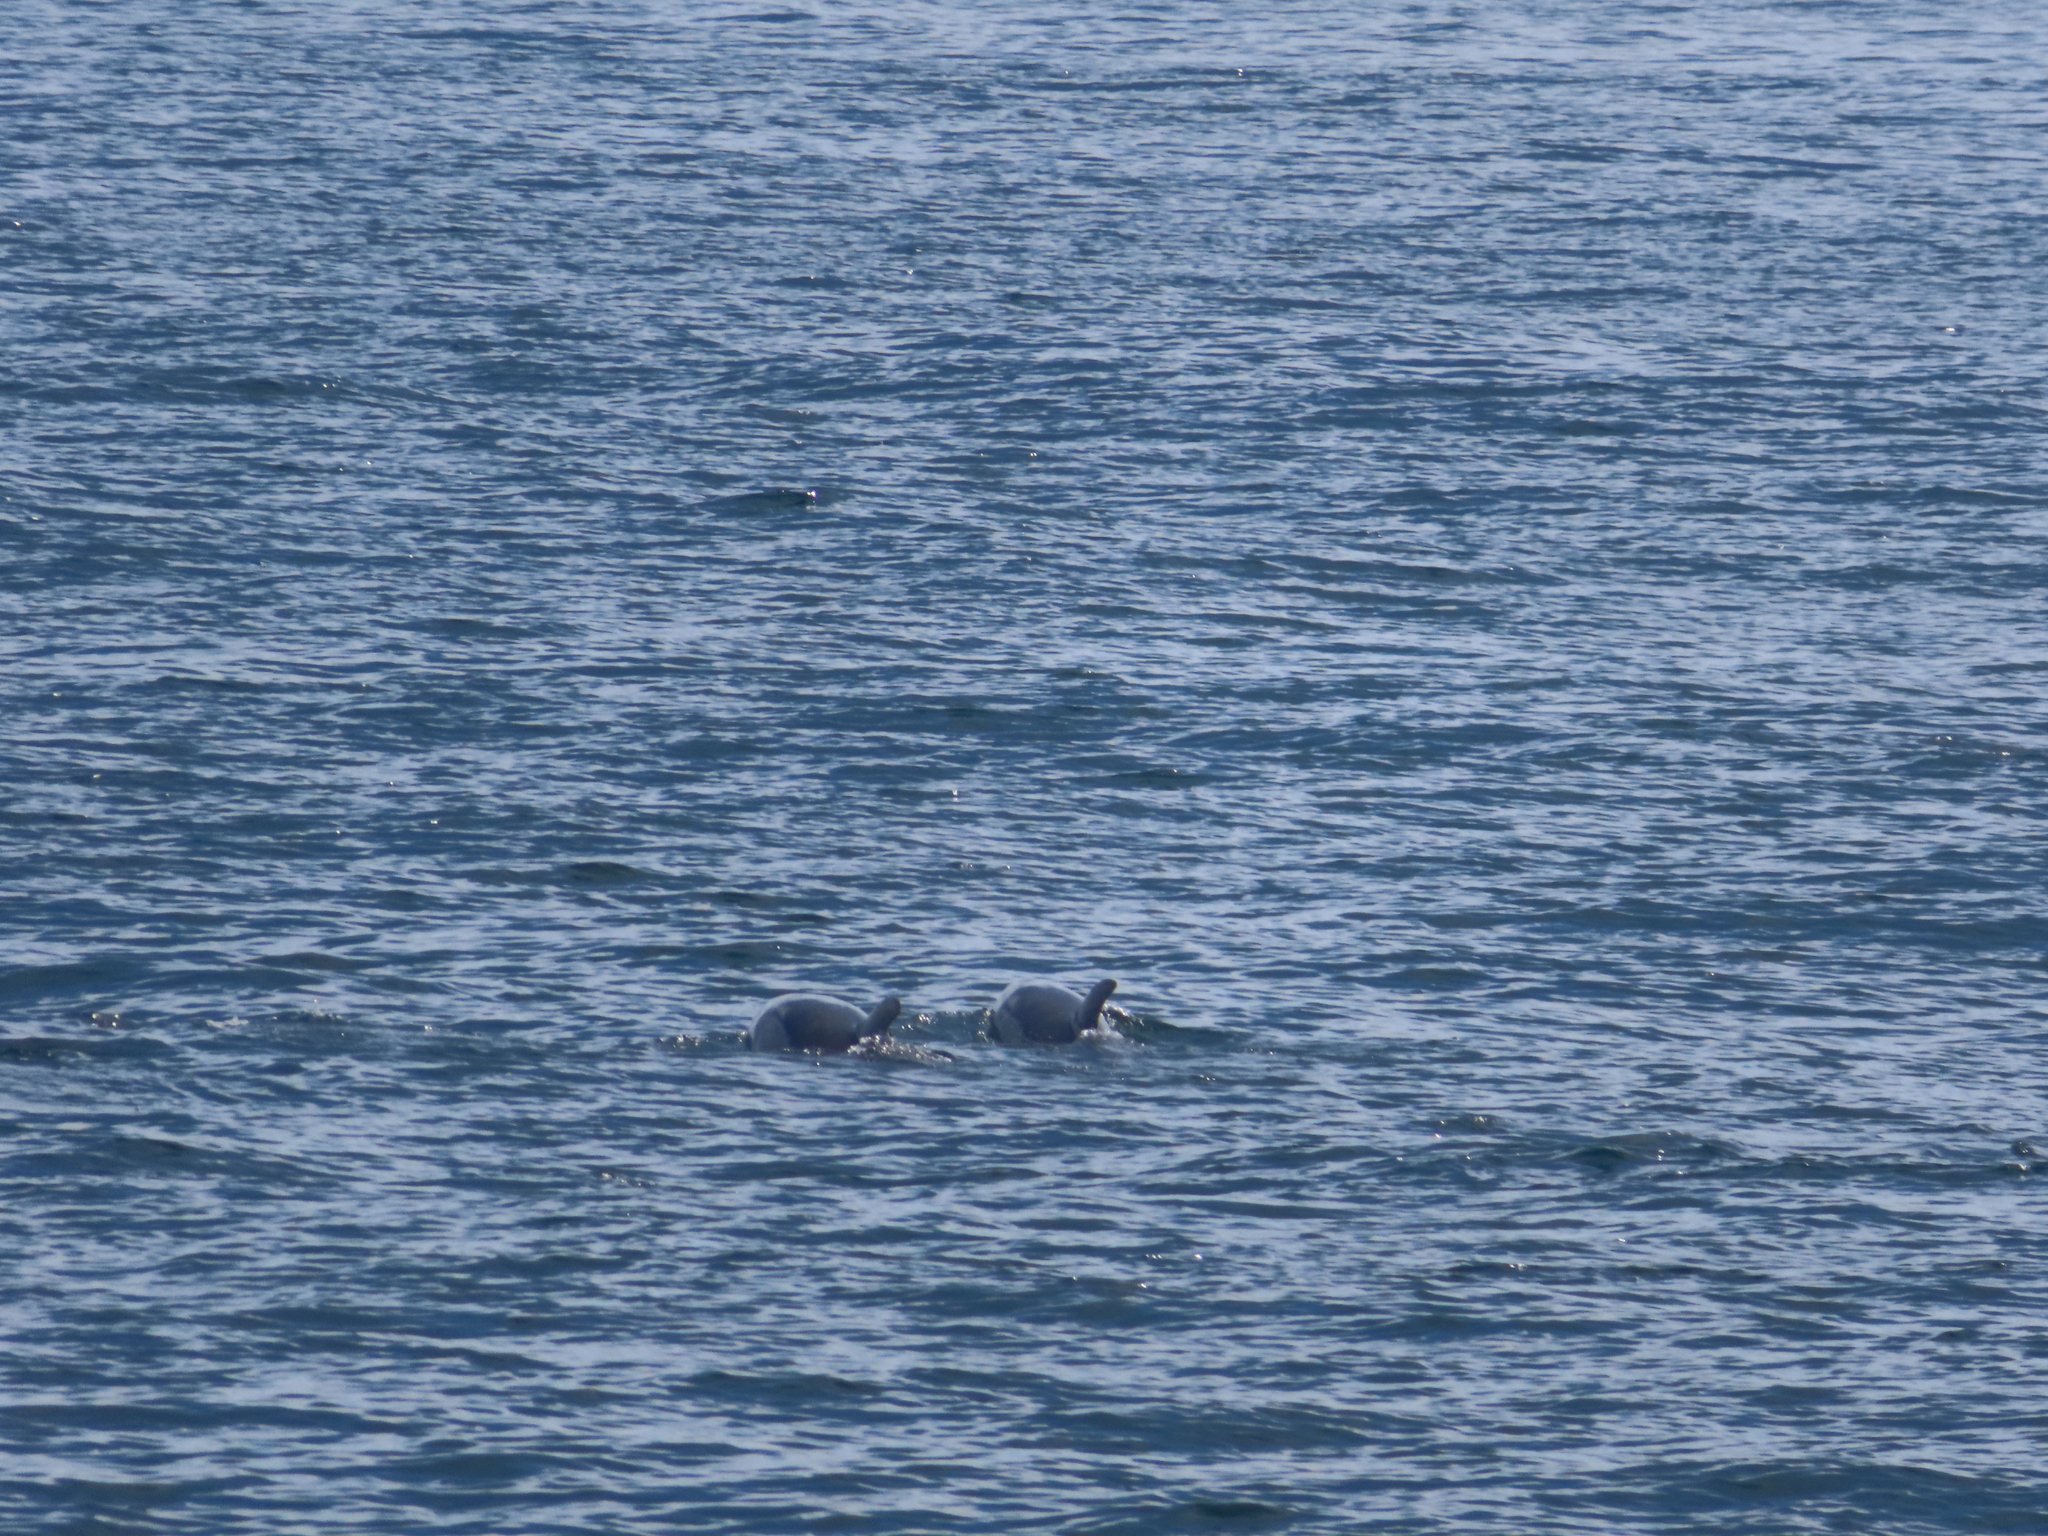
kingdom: Animalia
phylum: Chordata
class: Mammalia
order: Cetacea
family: Delphinidae
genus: Tursiops
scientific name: Tursiops truncatus
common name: Bottlenose dolphin
